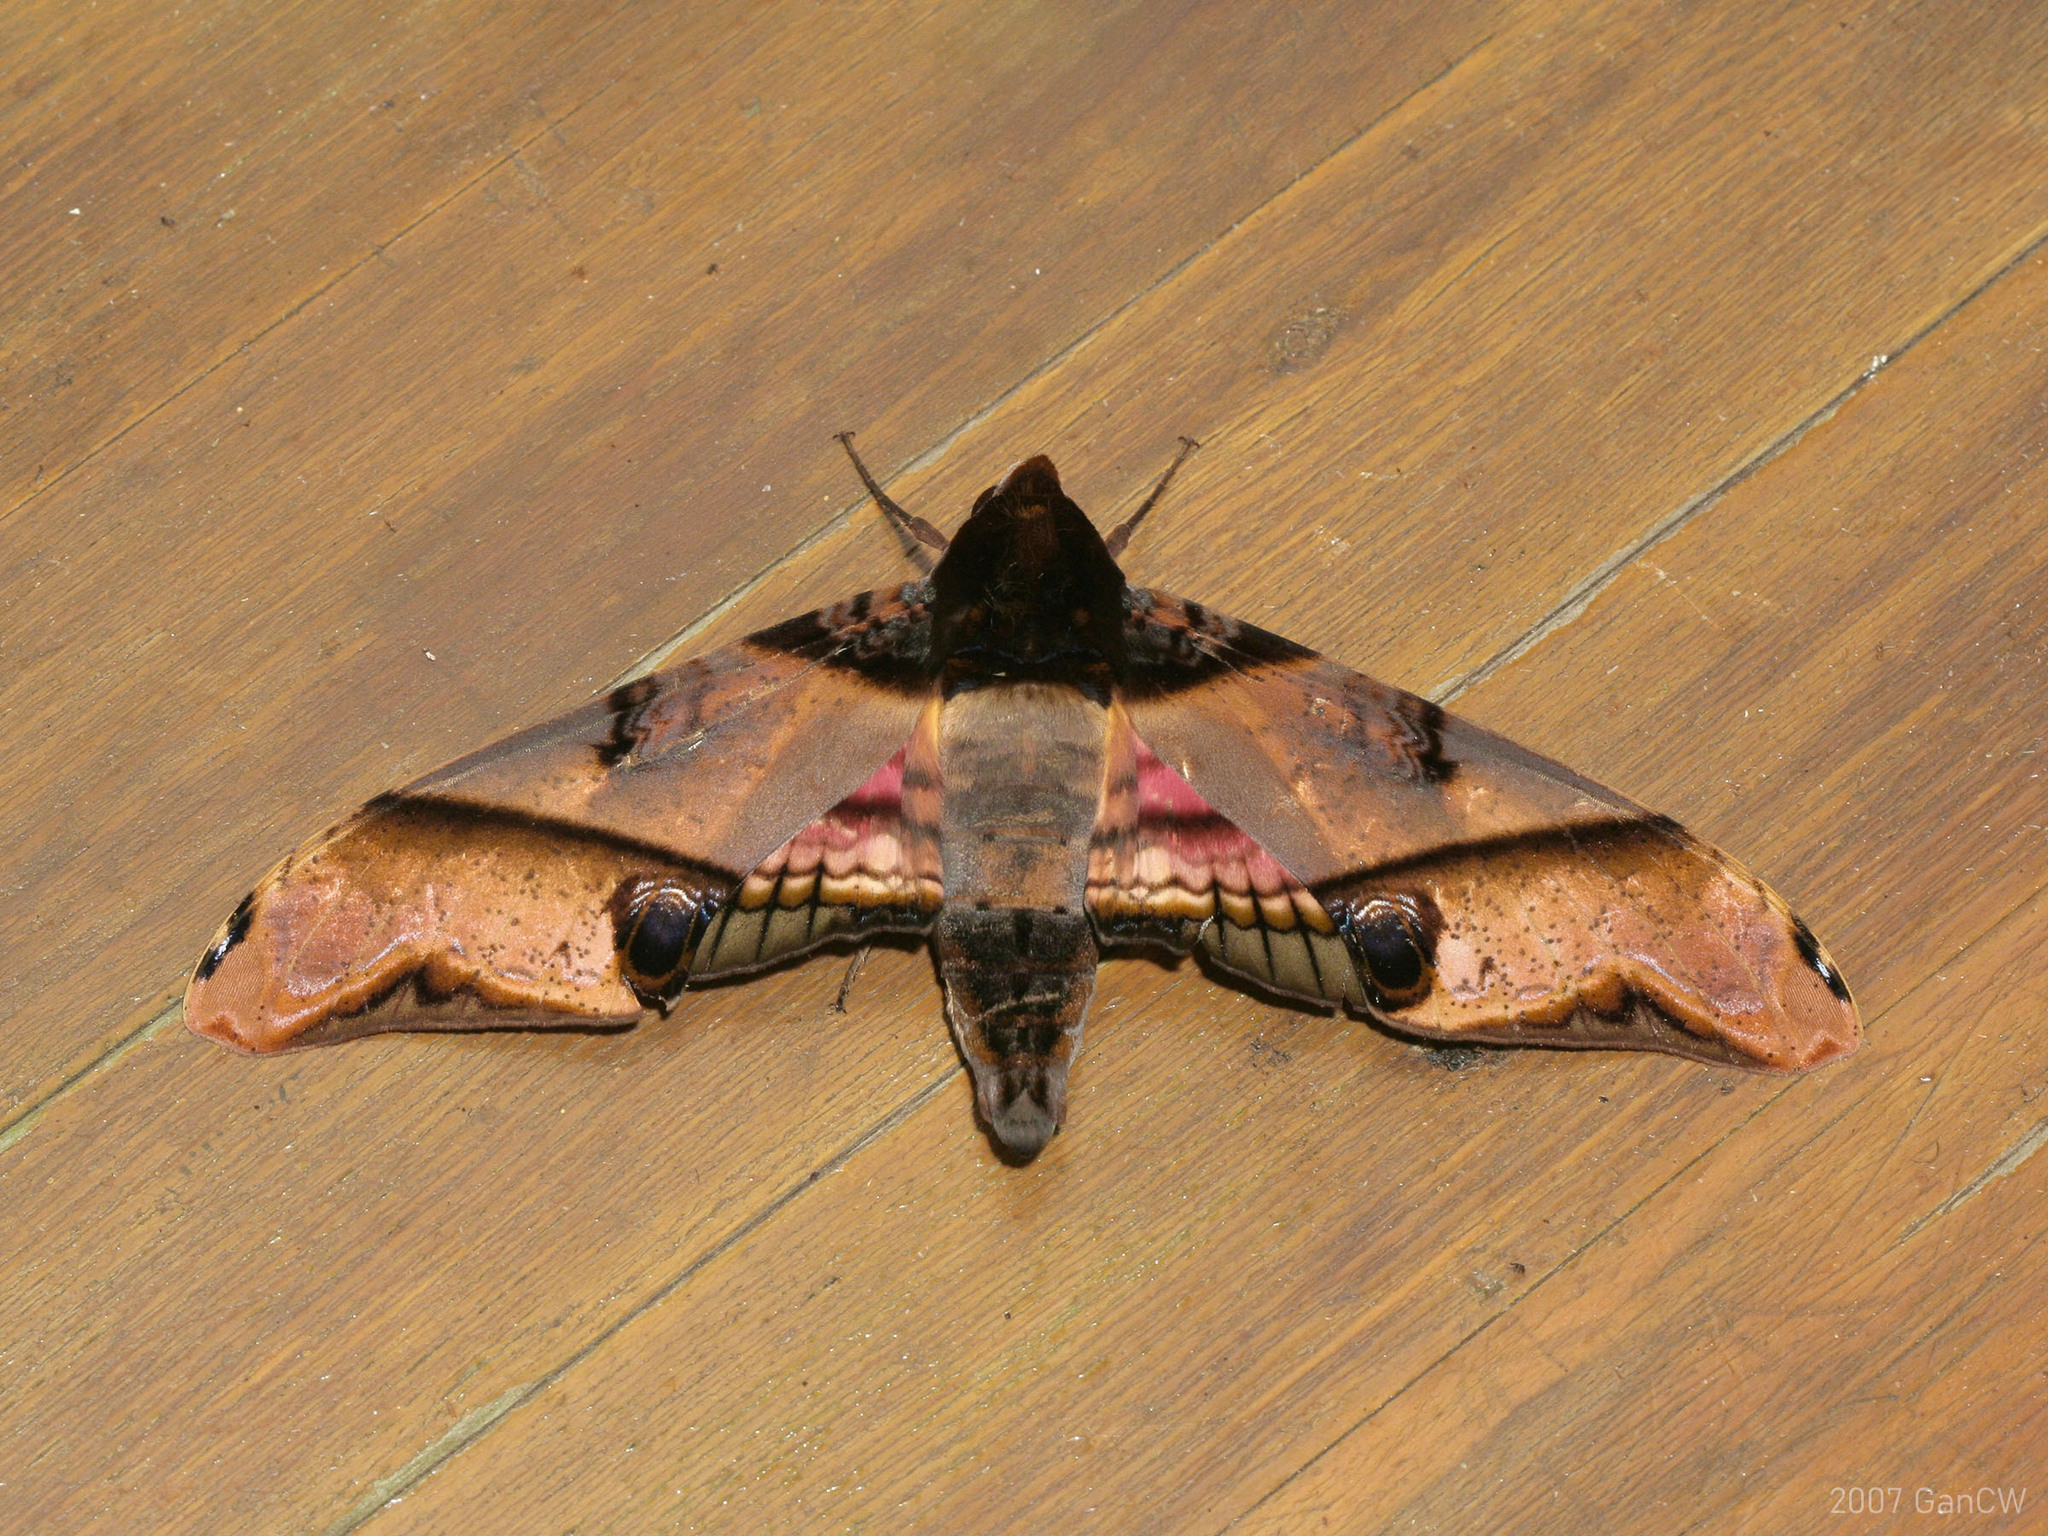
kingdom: Animalia
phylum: Arthropoda
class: Insecta
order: Lepidoptera
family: Sphingidae
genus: Amplypterus
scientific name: Amplypterus panopus
